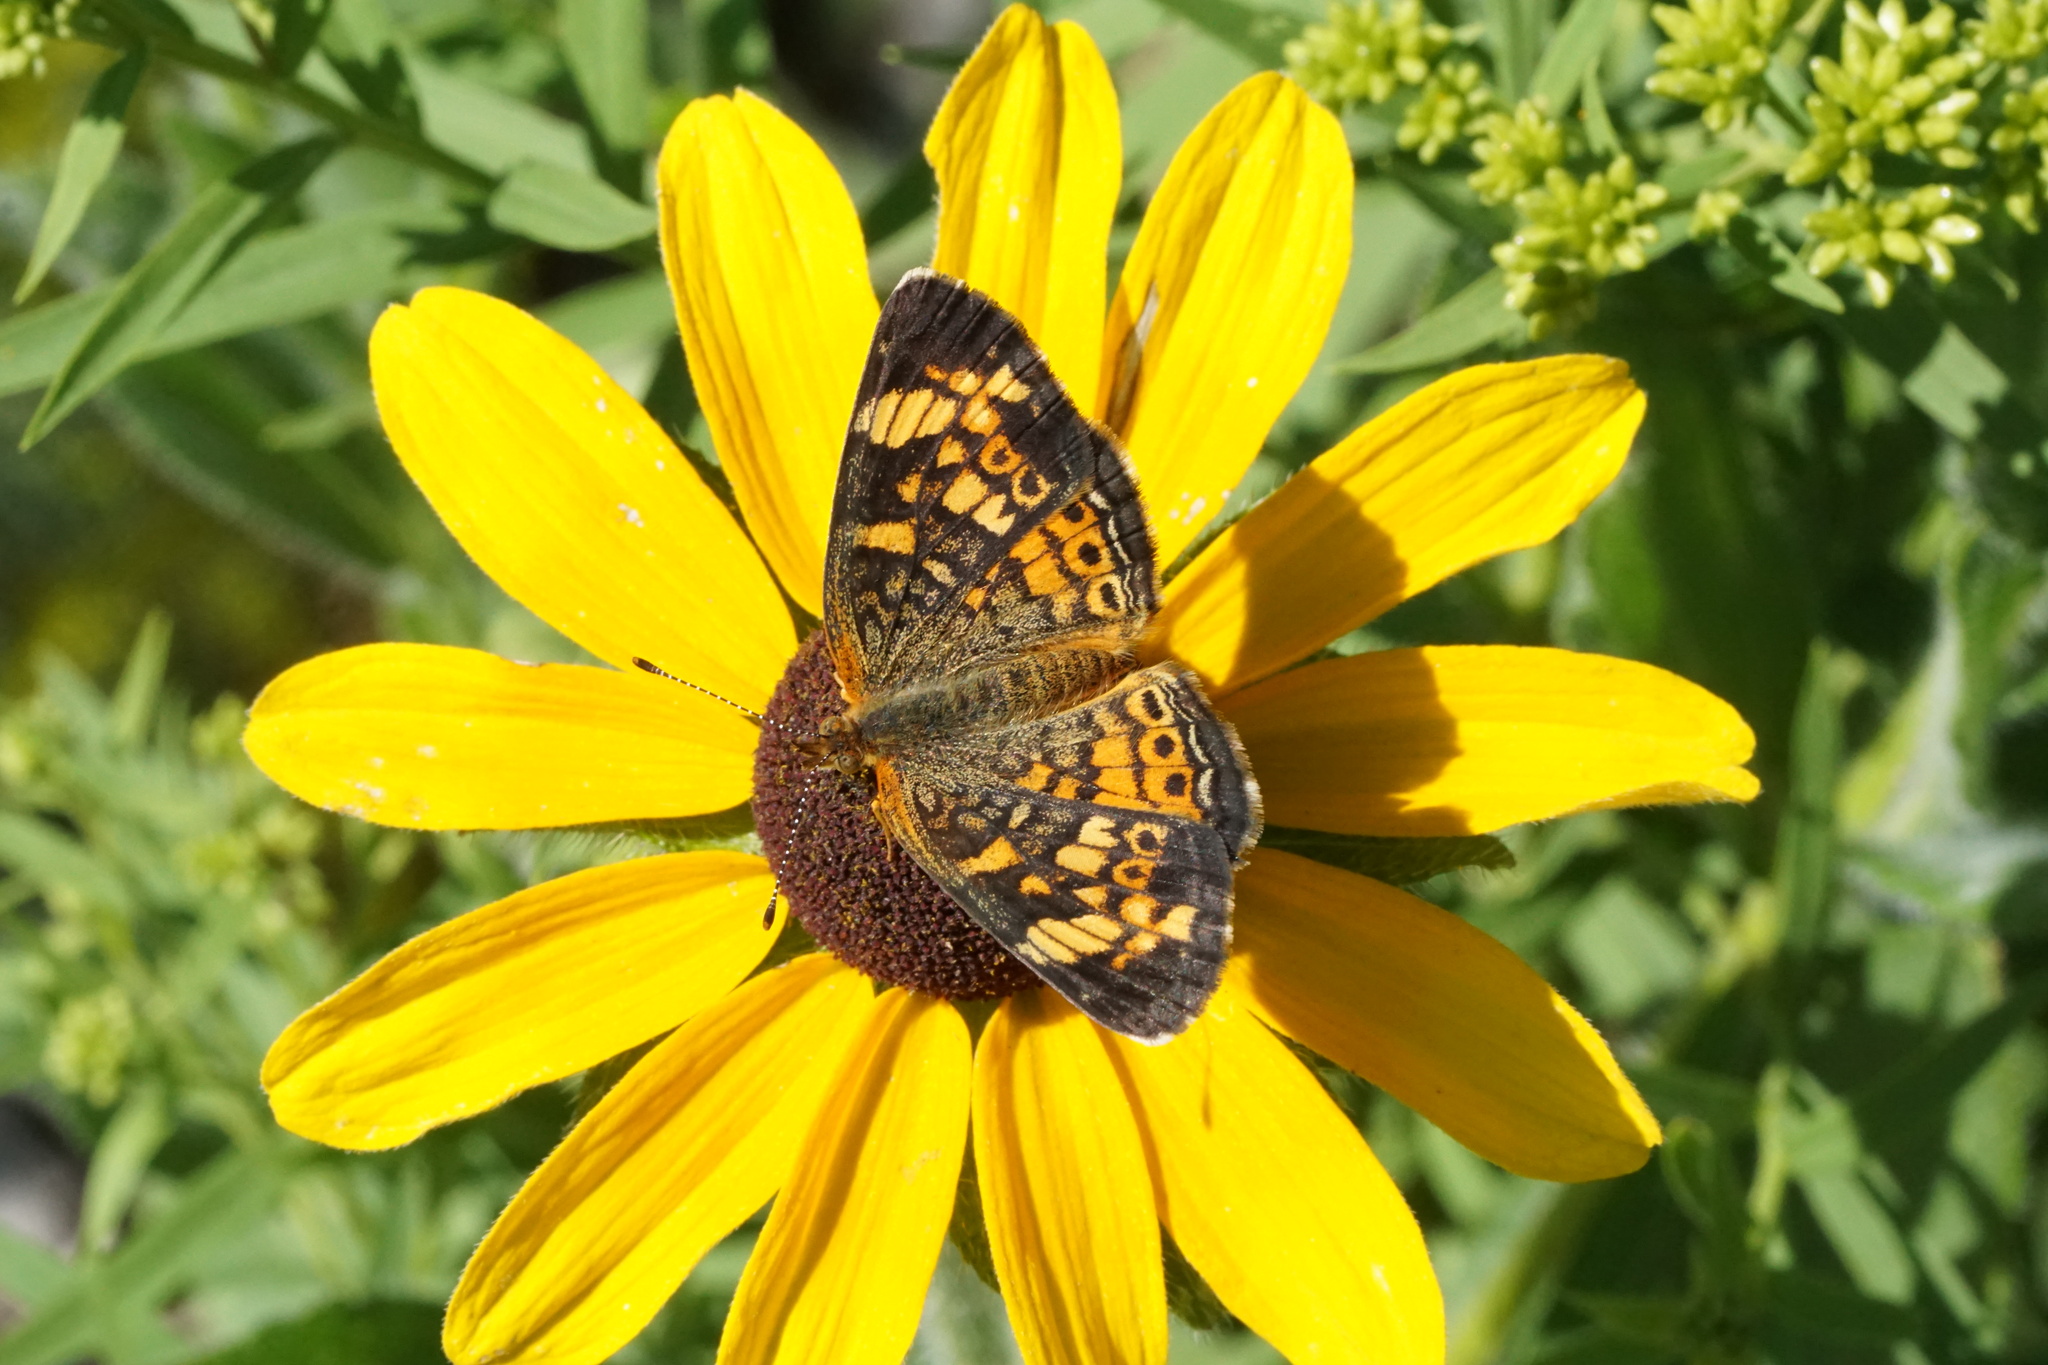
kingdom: Animalia
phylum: Arthropoda
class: Insecta
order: Lepidoptera
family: Nymphalidae
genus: Phyciodes
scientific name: Phyciodes tharos
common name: Pearl crescent
